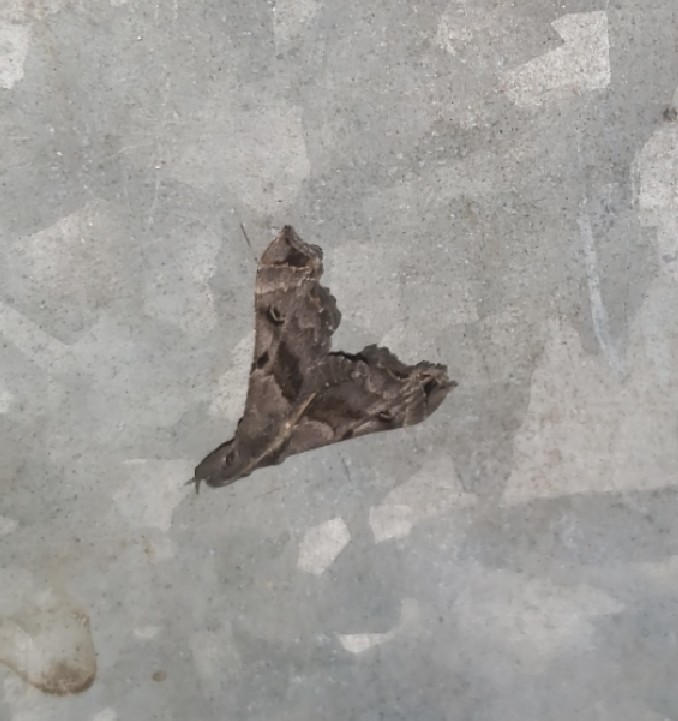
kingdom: Animalia
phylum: Arthropoda
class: Insecta
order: Lepidoptera
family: Erebidae
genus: Palthis
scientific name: Palthis asopialis
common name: Faint-spotted palthis moth
